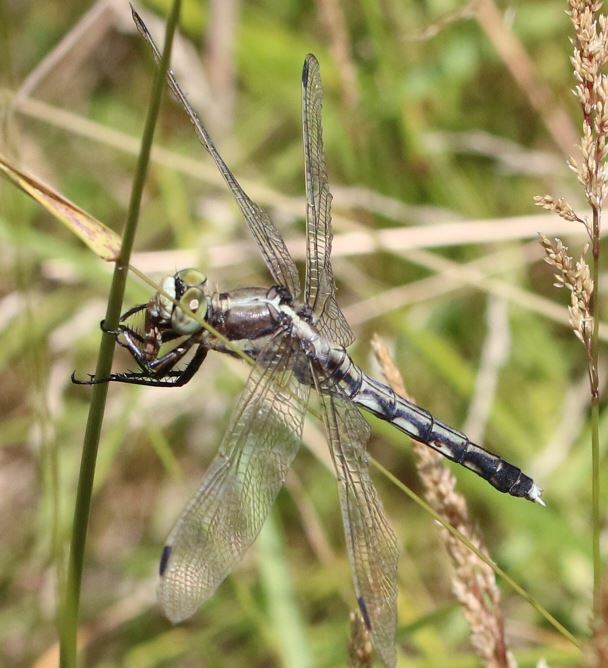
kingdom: Animalia
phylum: Arthropoda
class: Insecta
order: Odonata
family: Libellulidae
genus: Orthetrum
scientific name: Orthetrum albistylum
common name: White-tailed skimmer
